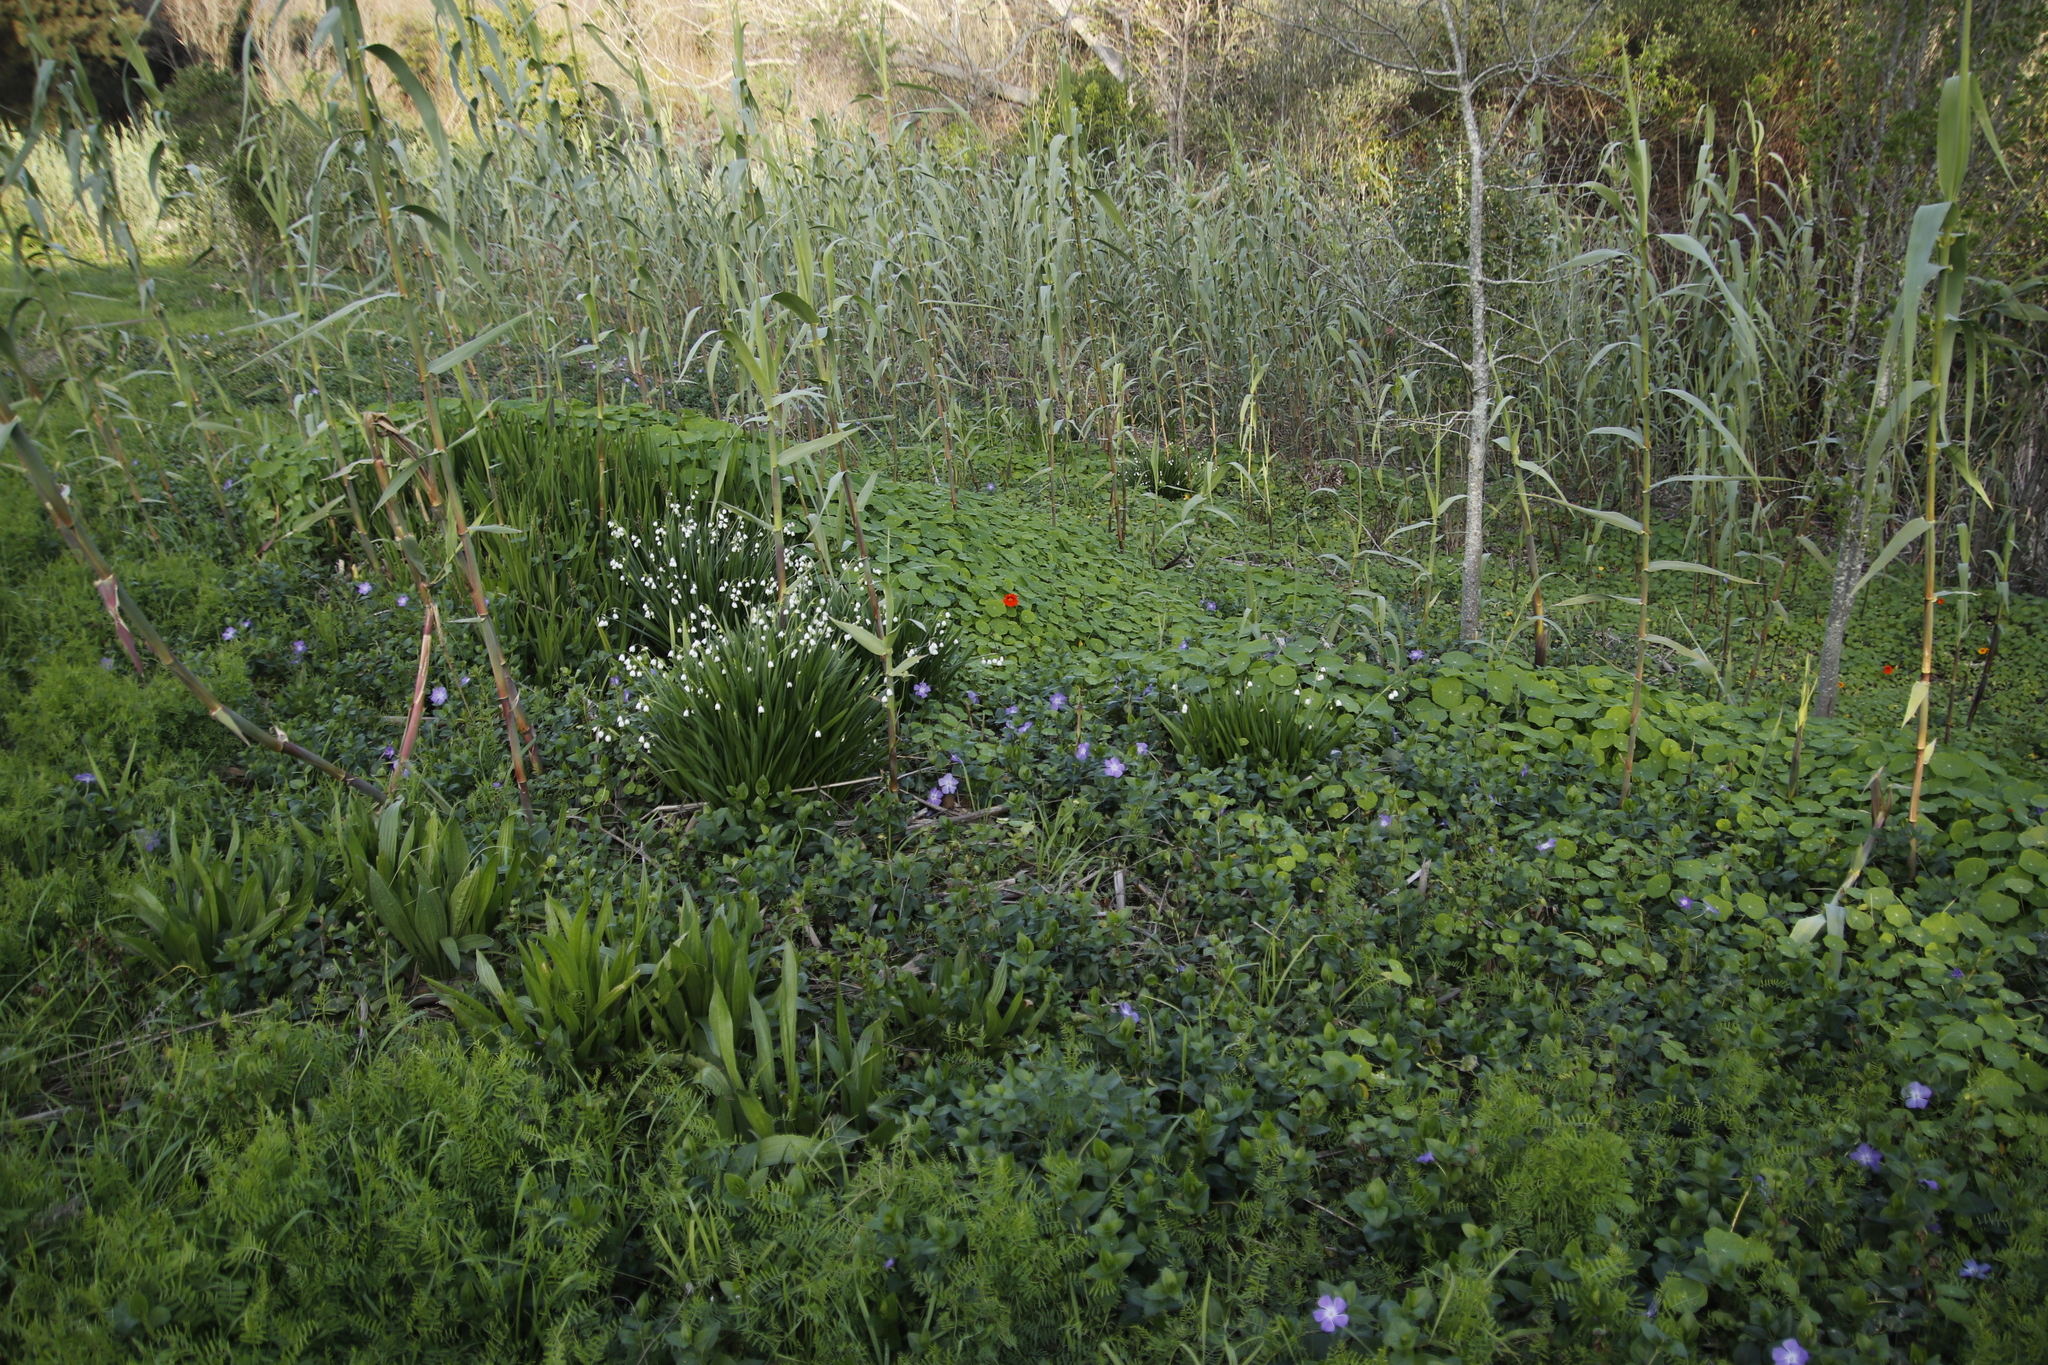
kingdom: Plantae
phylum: Tracheophyta
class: Liliopsida
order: Asparagales
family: Amaryllidaceae
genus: Leucojum
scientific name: Leucojum aestivum
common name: Summer snowflake
